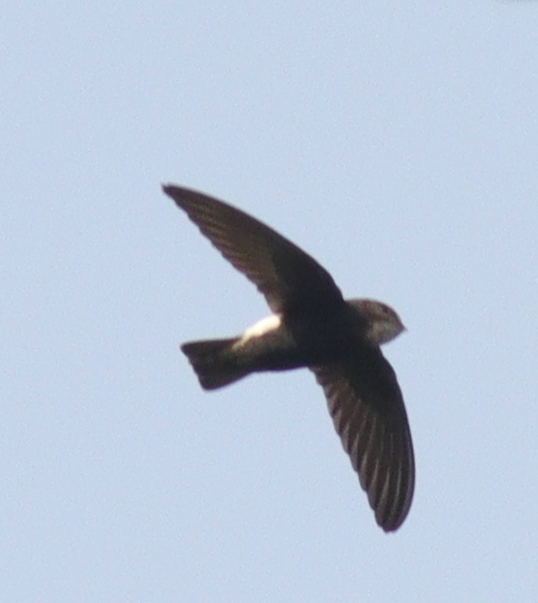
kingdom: Animalia
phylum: Chordata
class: Aves
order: Apodiformes
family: Apodidae
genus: Apus
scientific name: Apus affinis
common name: Little swift
